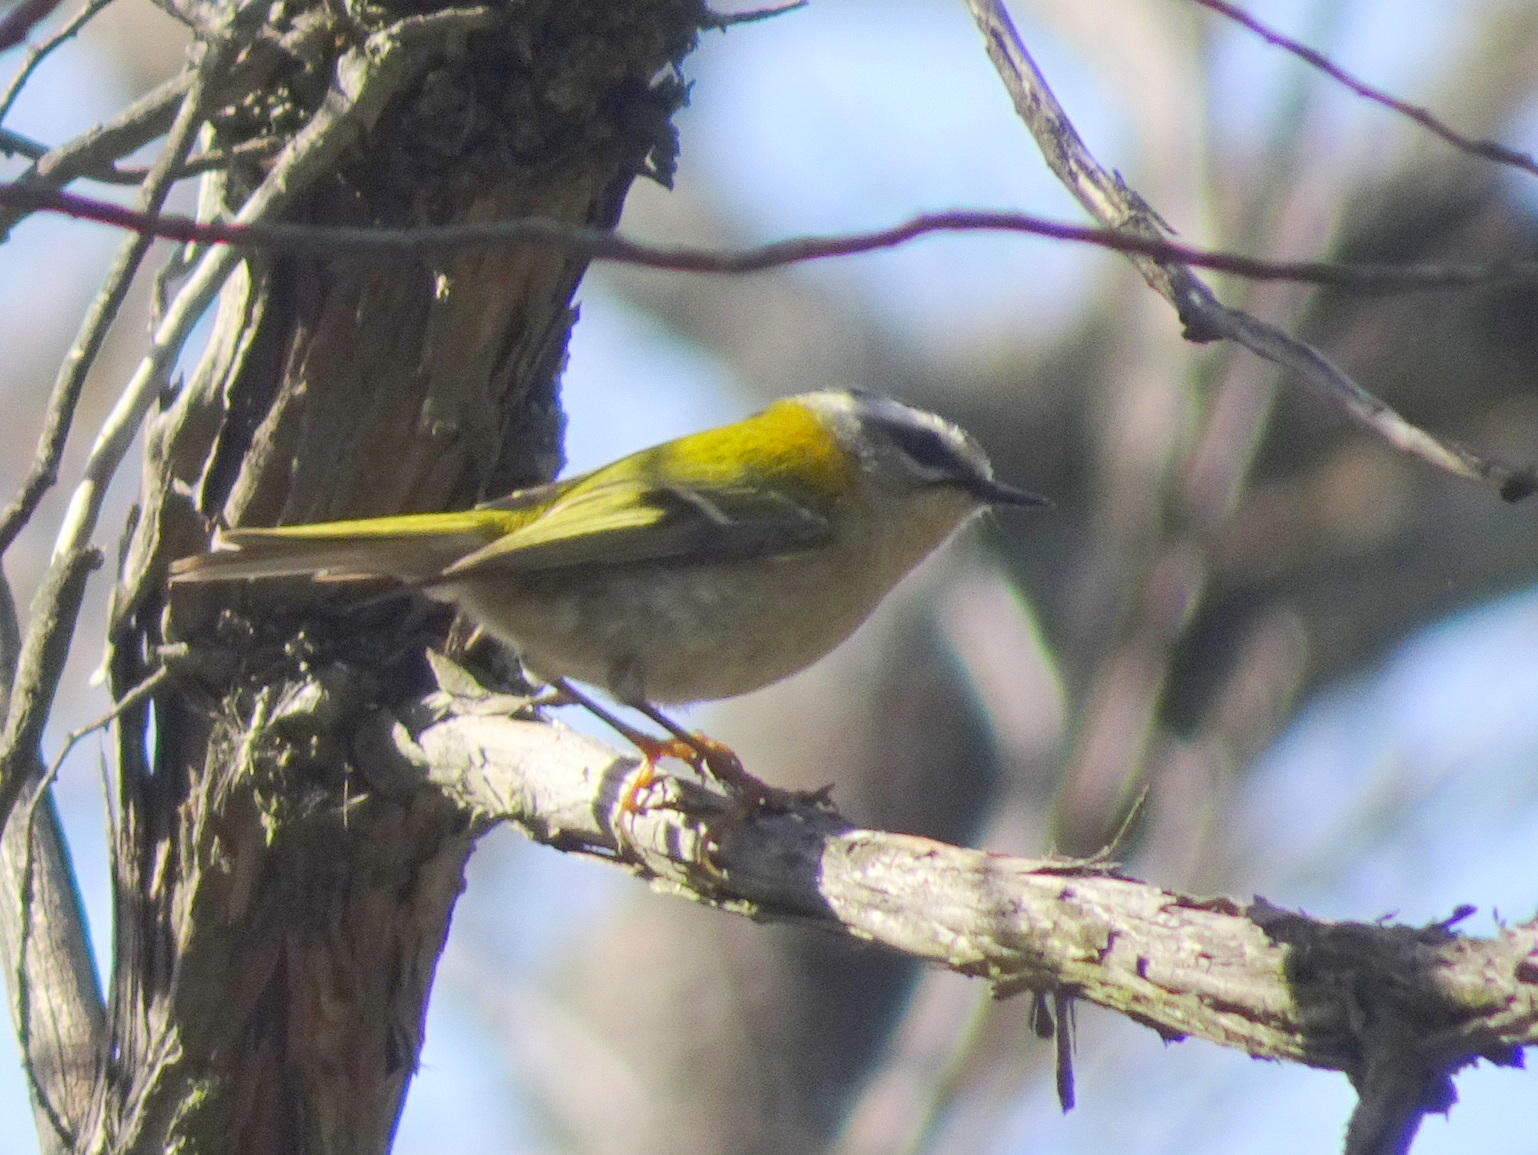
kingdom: Animalia
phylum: Chordata
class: Aves
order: Passeriformes
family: Regulidae
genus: Regulus
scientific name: Regulus ignicapilla
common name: Firecrest
